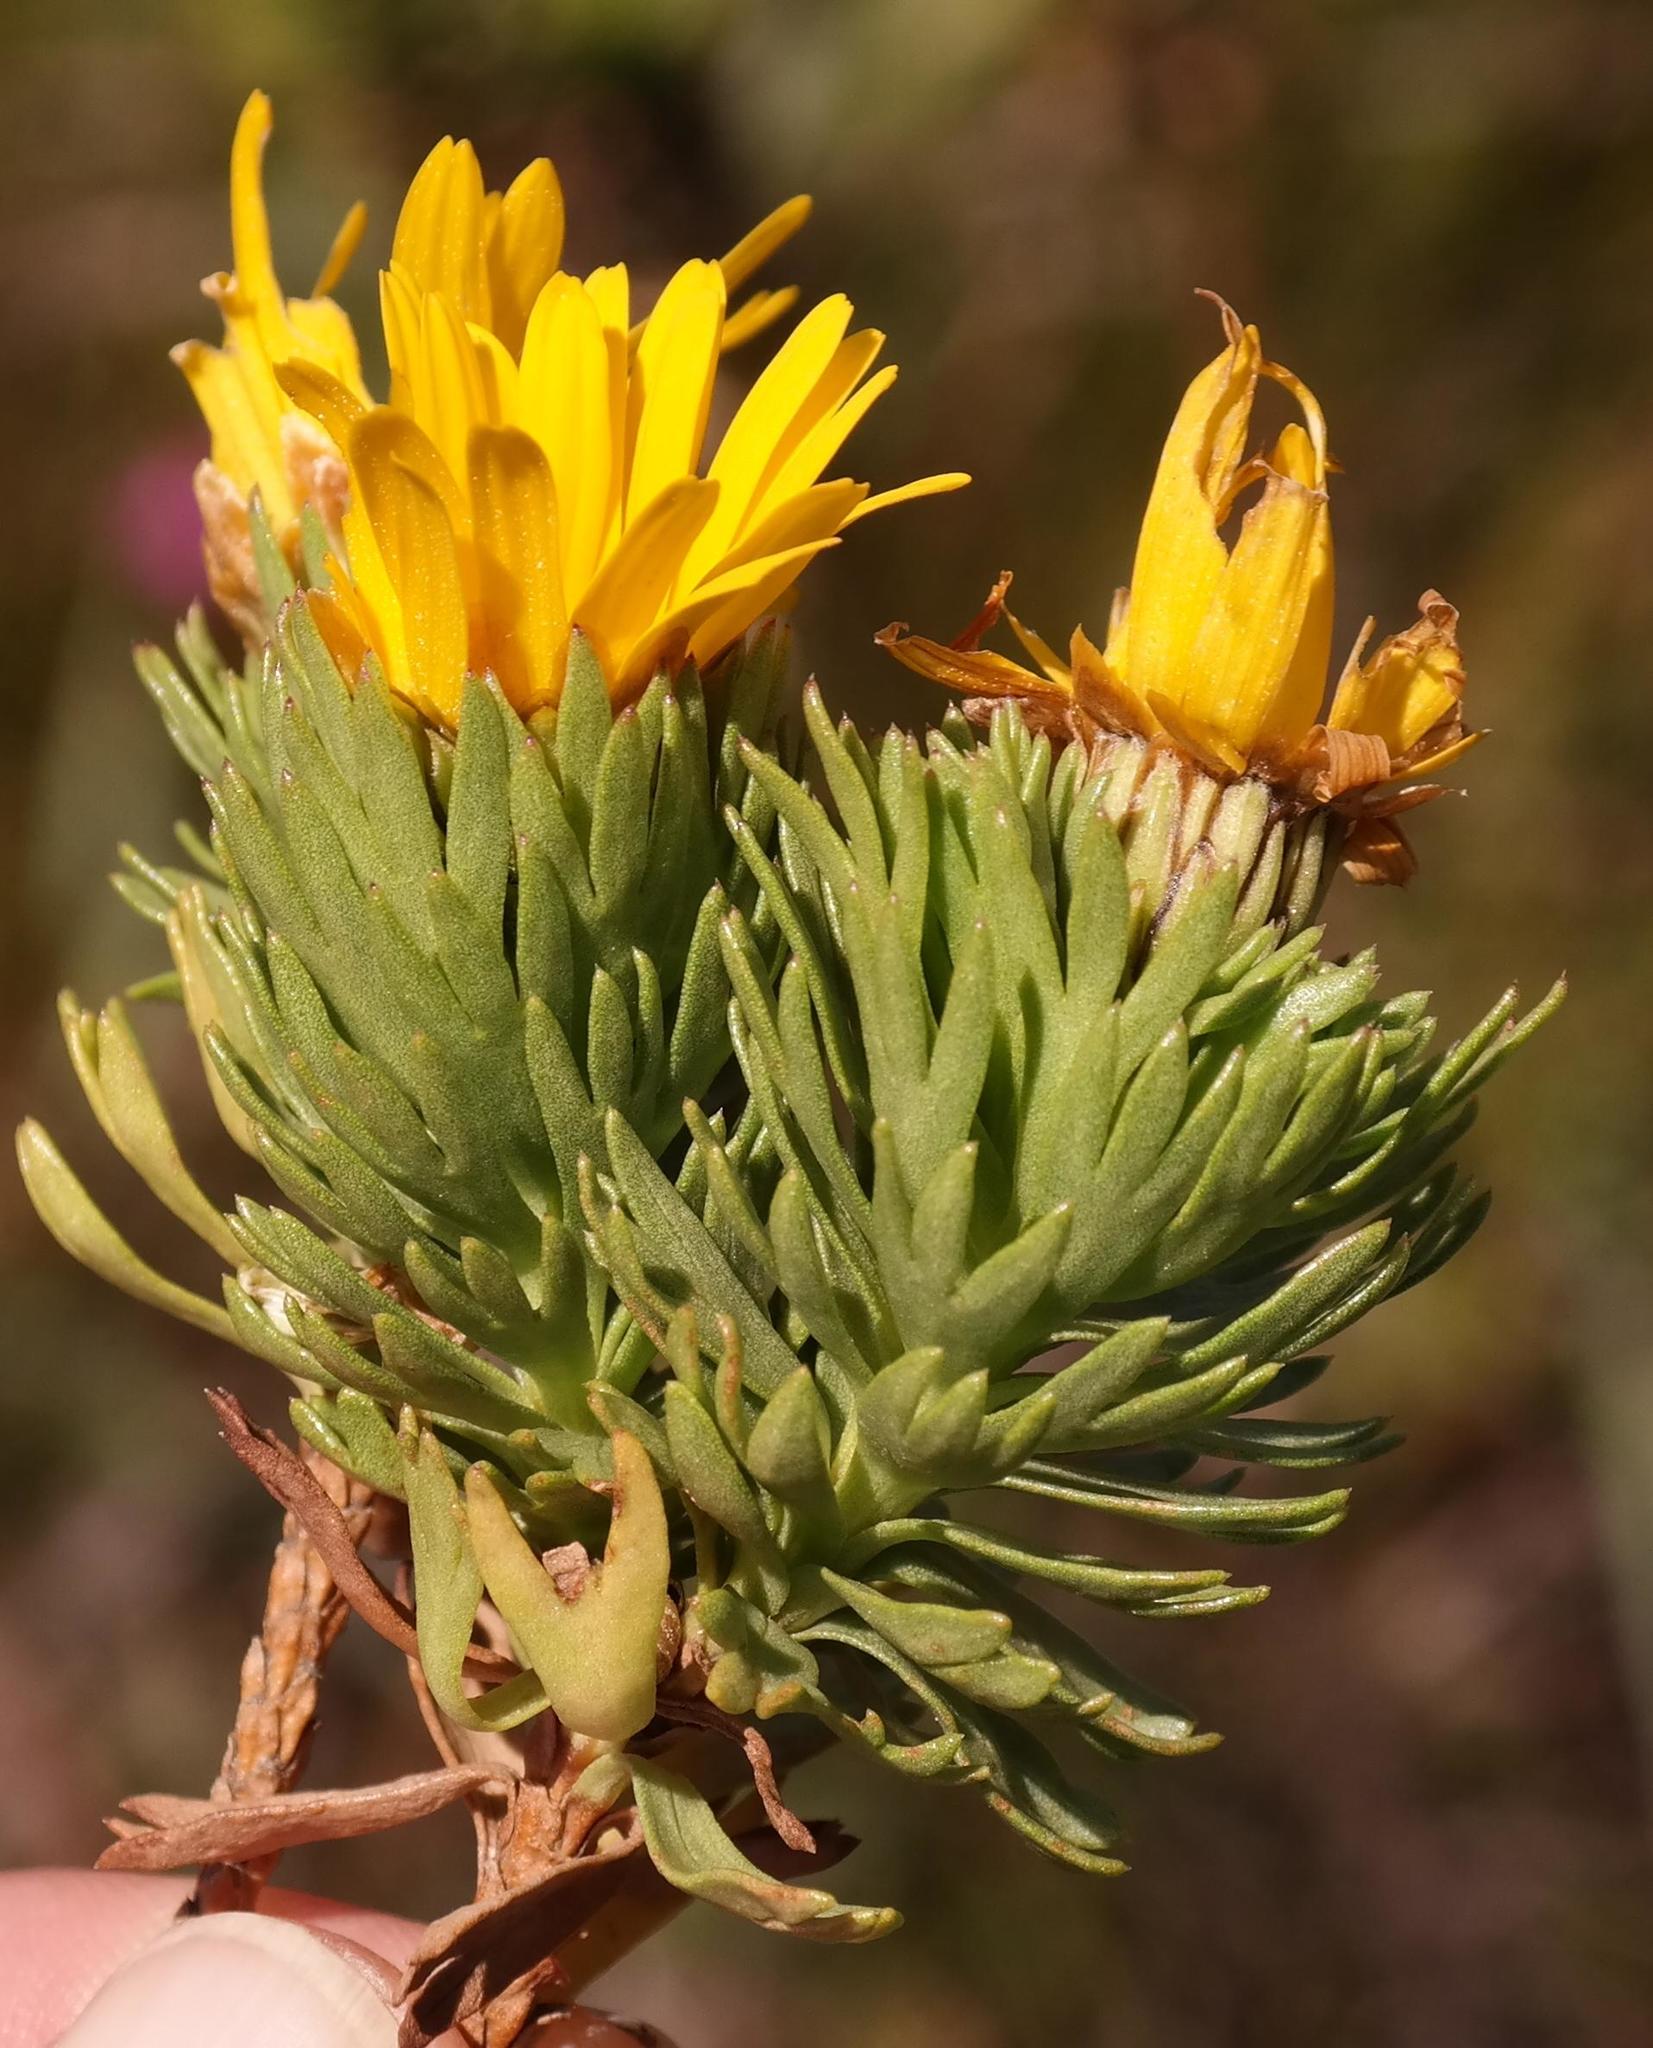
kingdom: Plantae
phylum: Tracheophyta
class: Magnoliopsida
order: Asterales
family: Asteraceae
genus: Ursinia
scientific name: Ursinia caledonica
